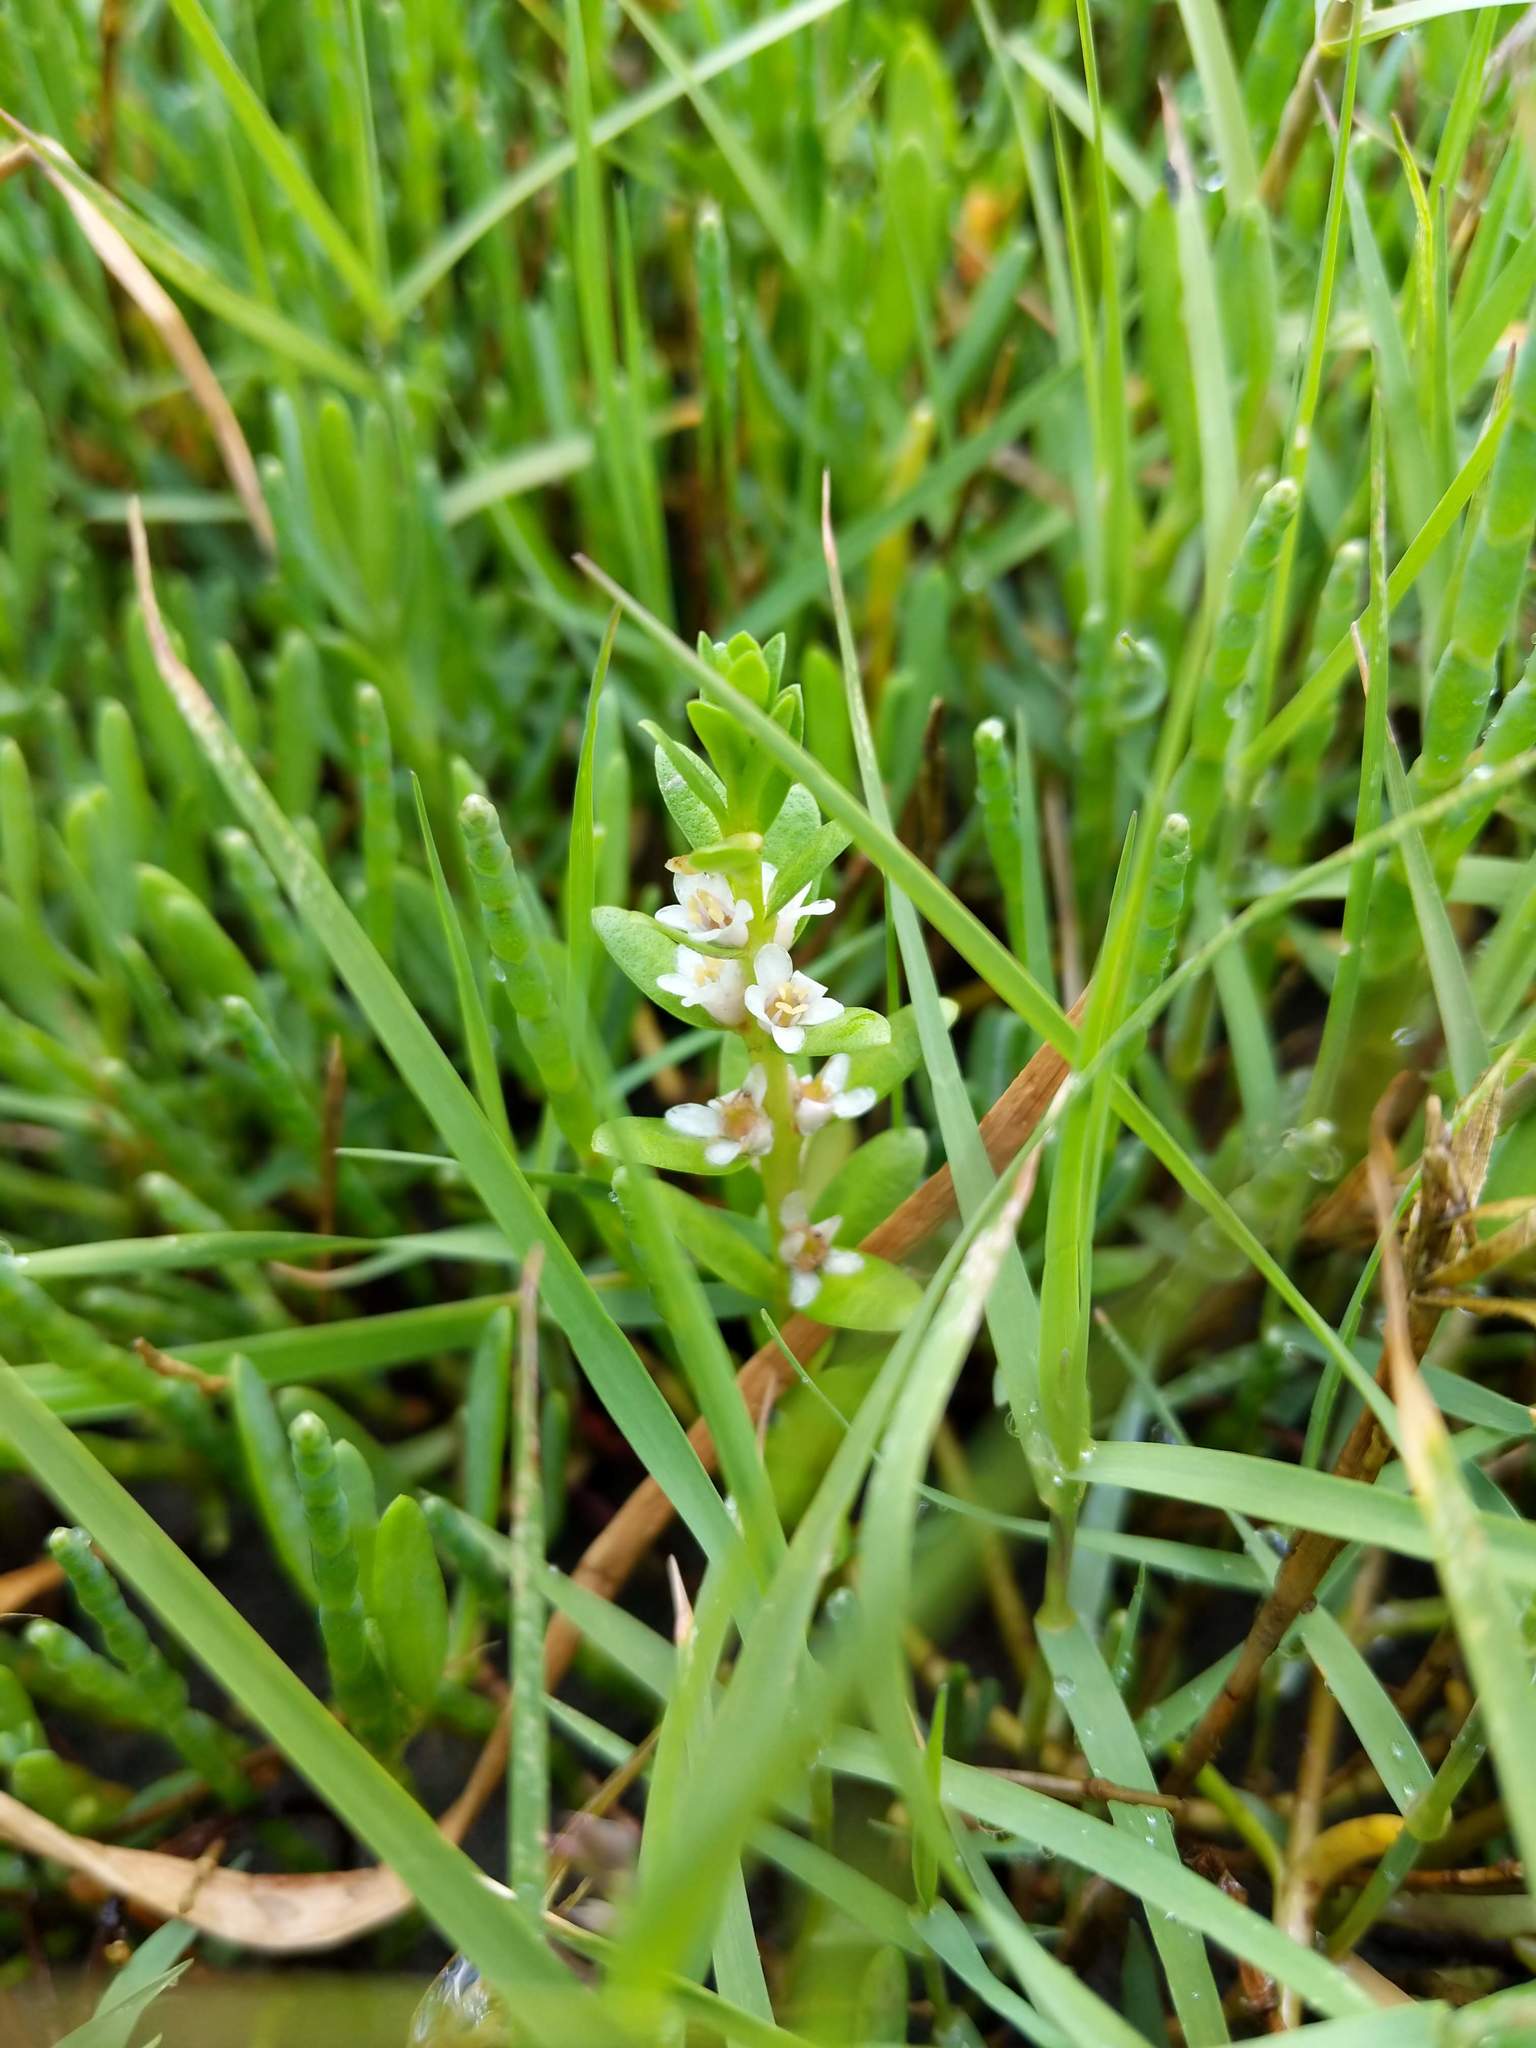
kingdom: Plantae
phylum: Tracheophyta
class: Magnoliopsida
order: Ericales
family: Primulaceae
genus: Lysimachia
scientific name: Lysimachia maritima
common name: Sea milkwort
